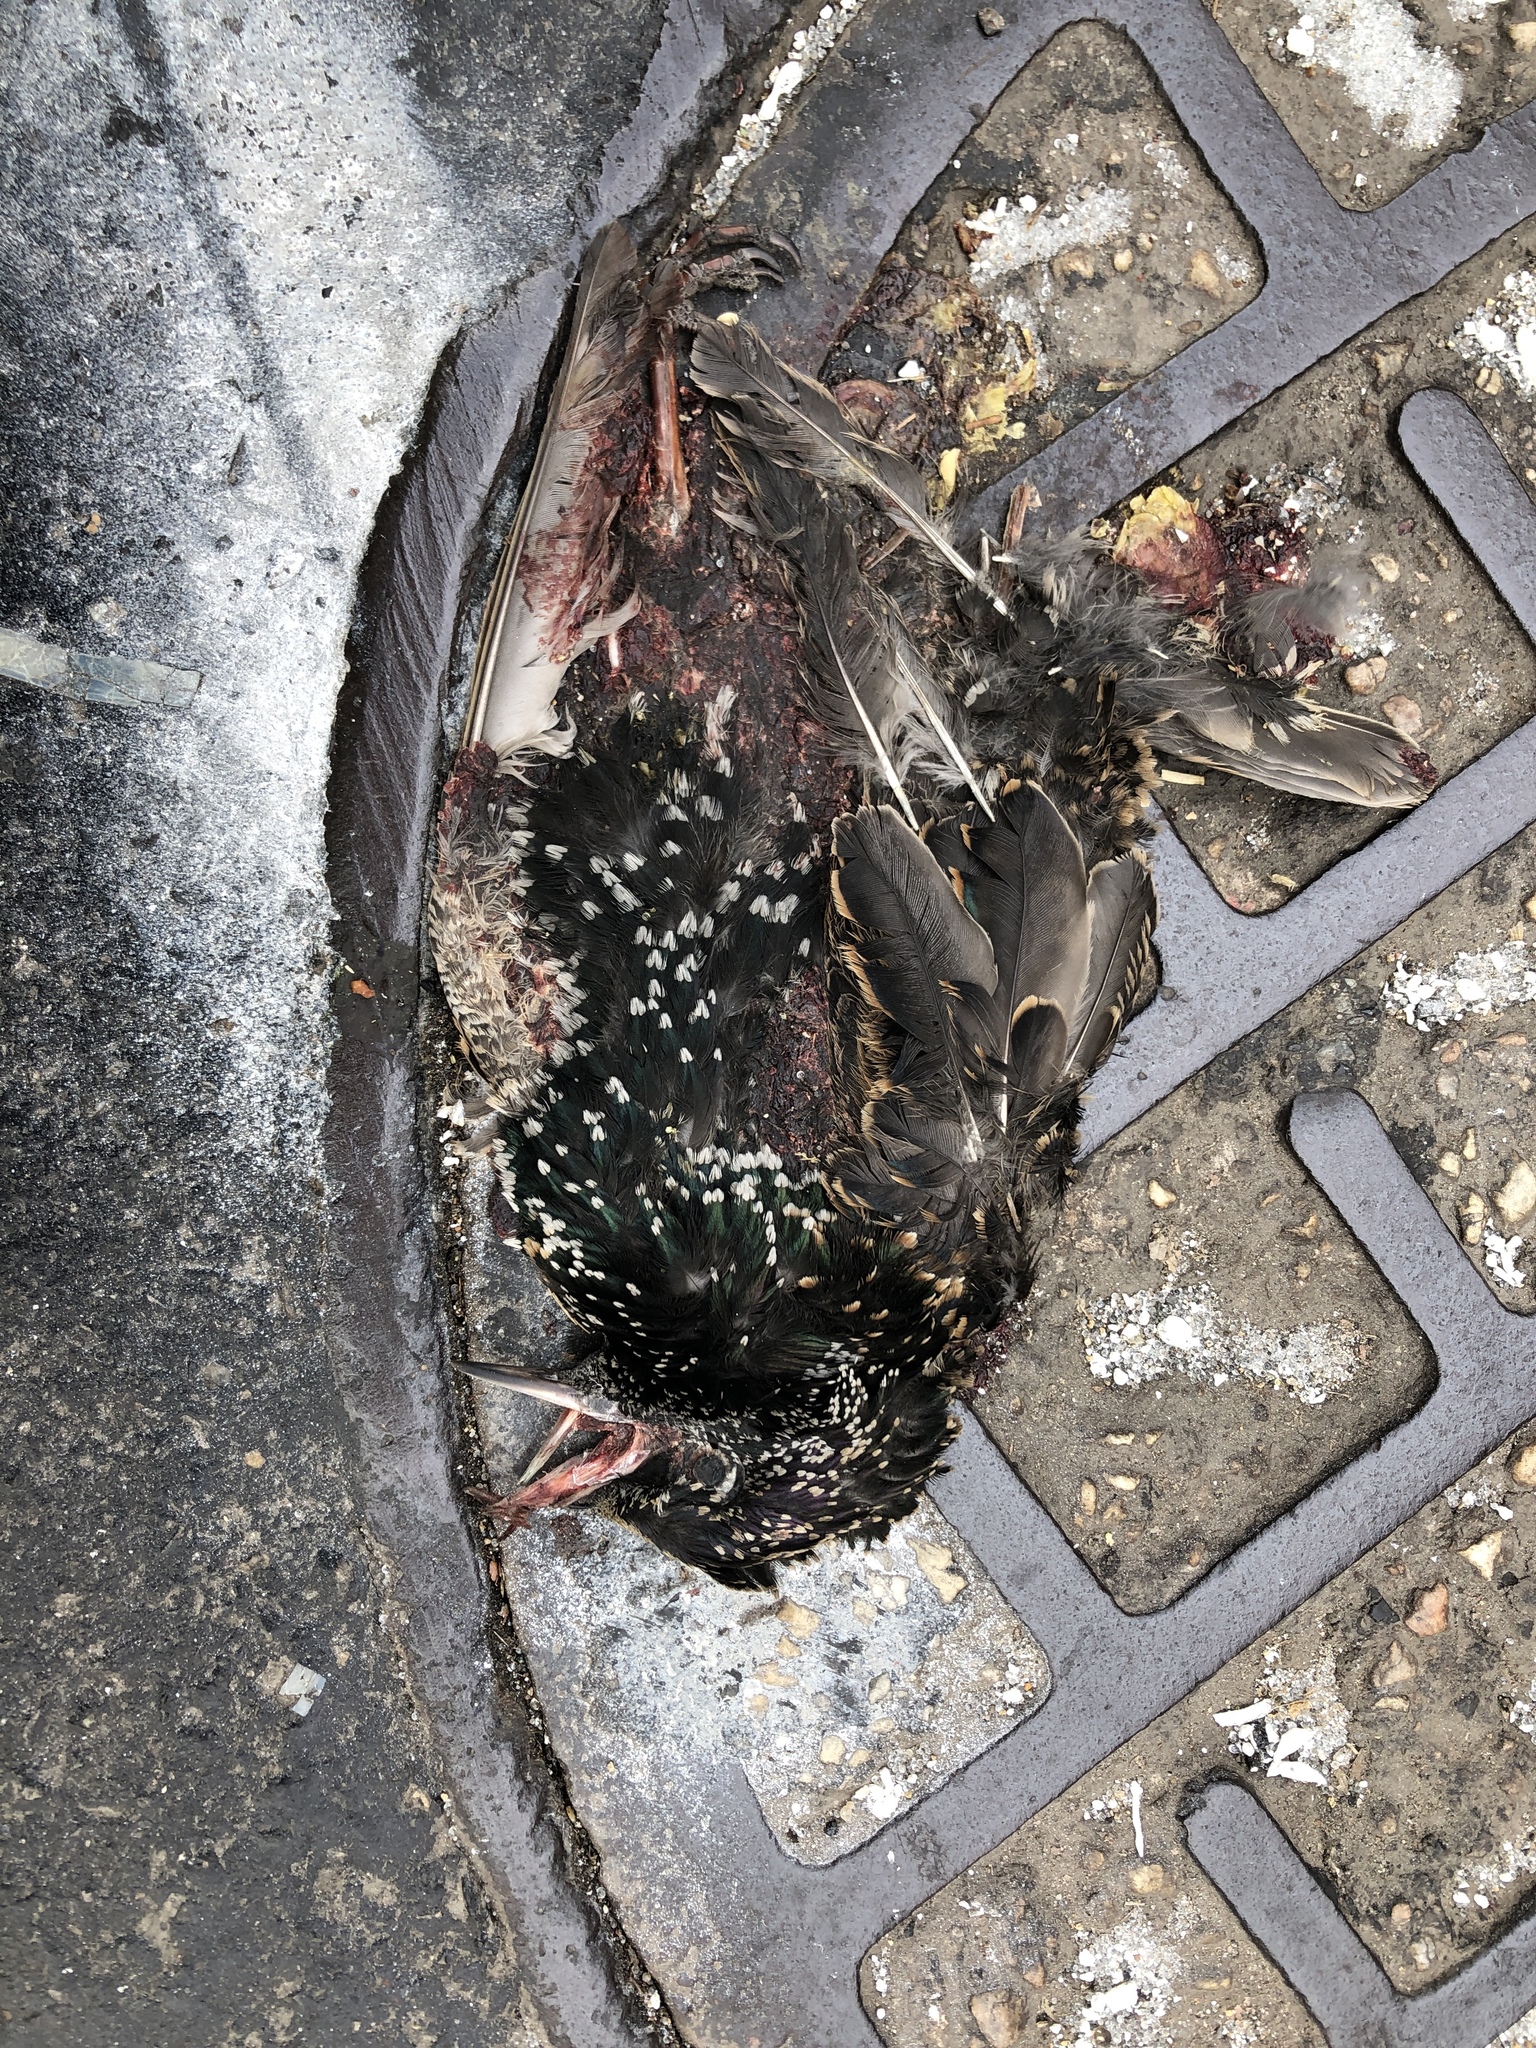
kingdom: Animalia
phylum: Chordata
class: Aves
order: Passeriformes
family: Sturnidae
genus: Sturnus
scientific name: Sturnus vulgaris
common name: Common starling
